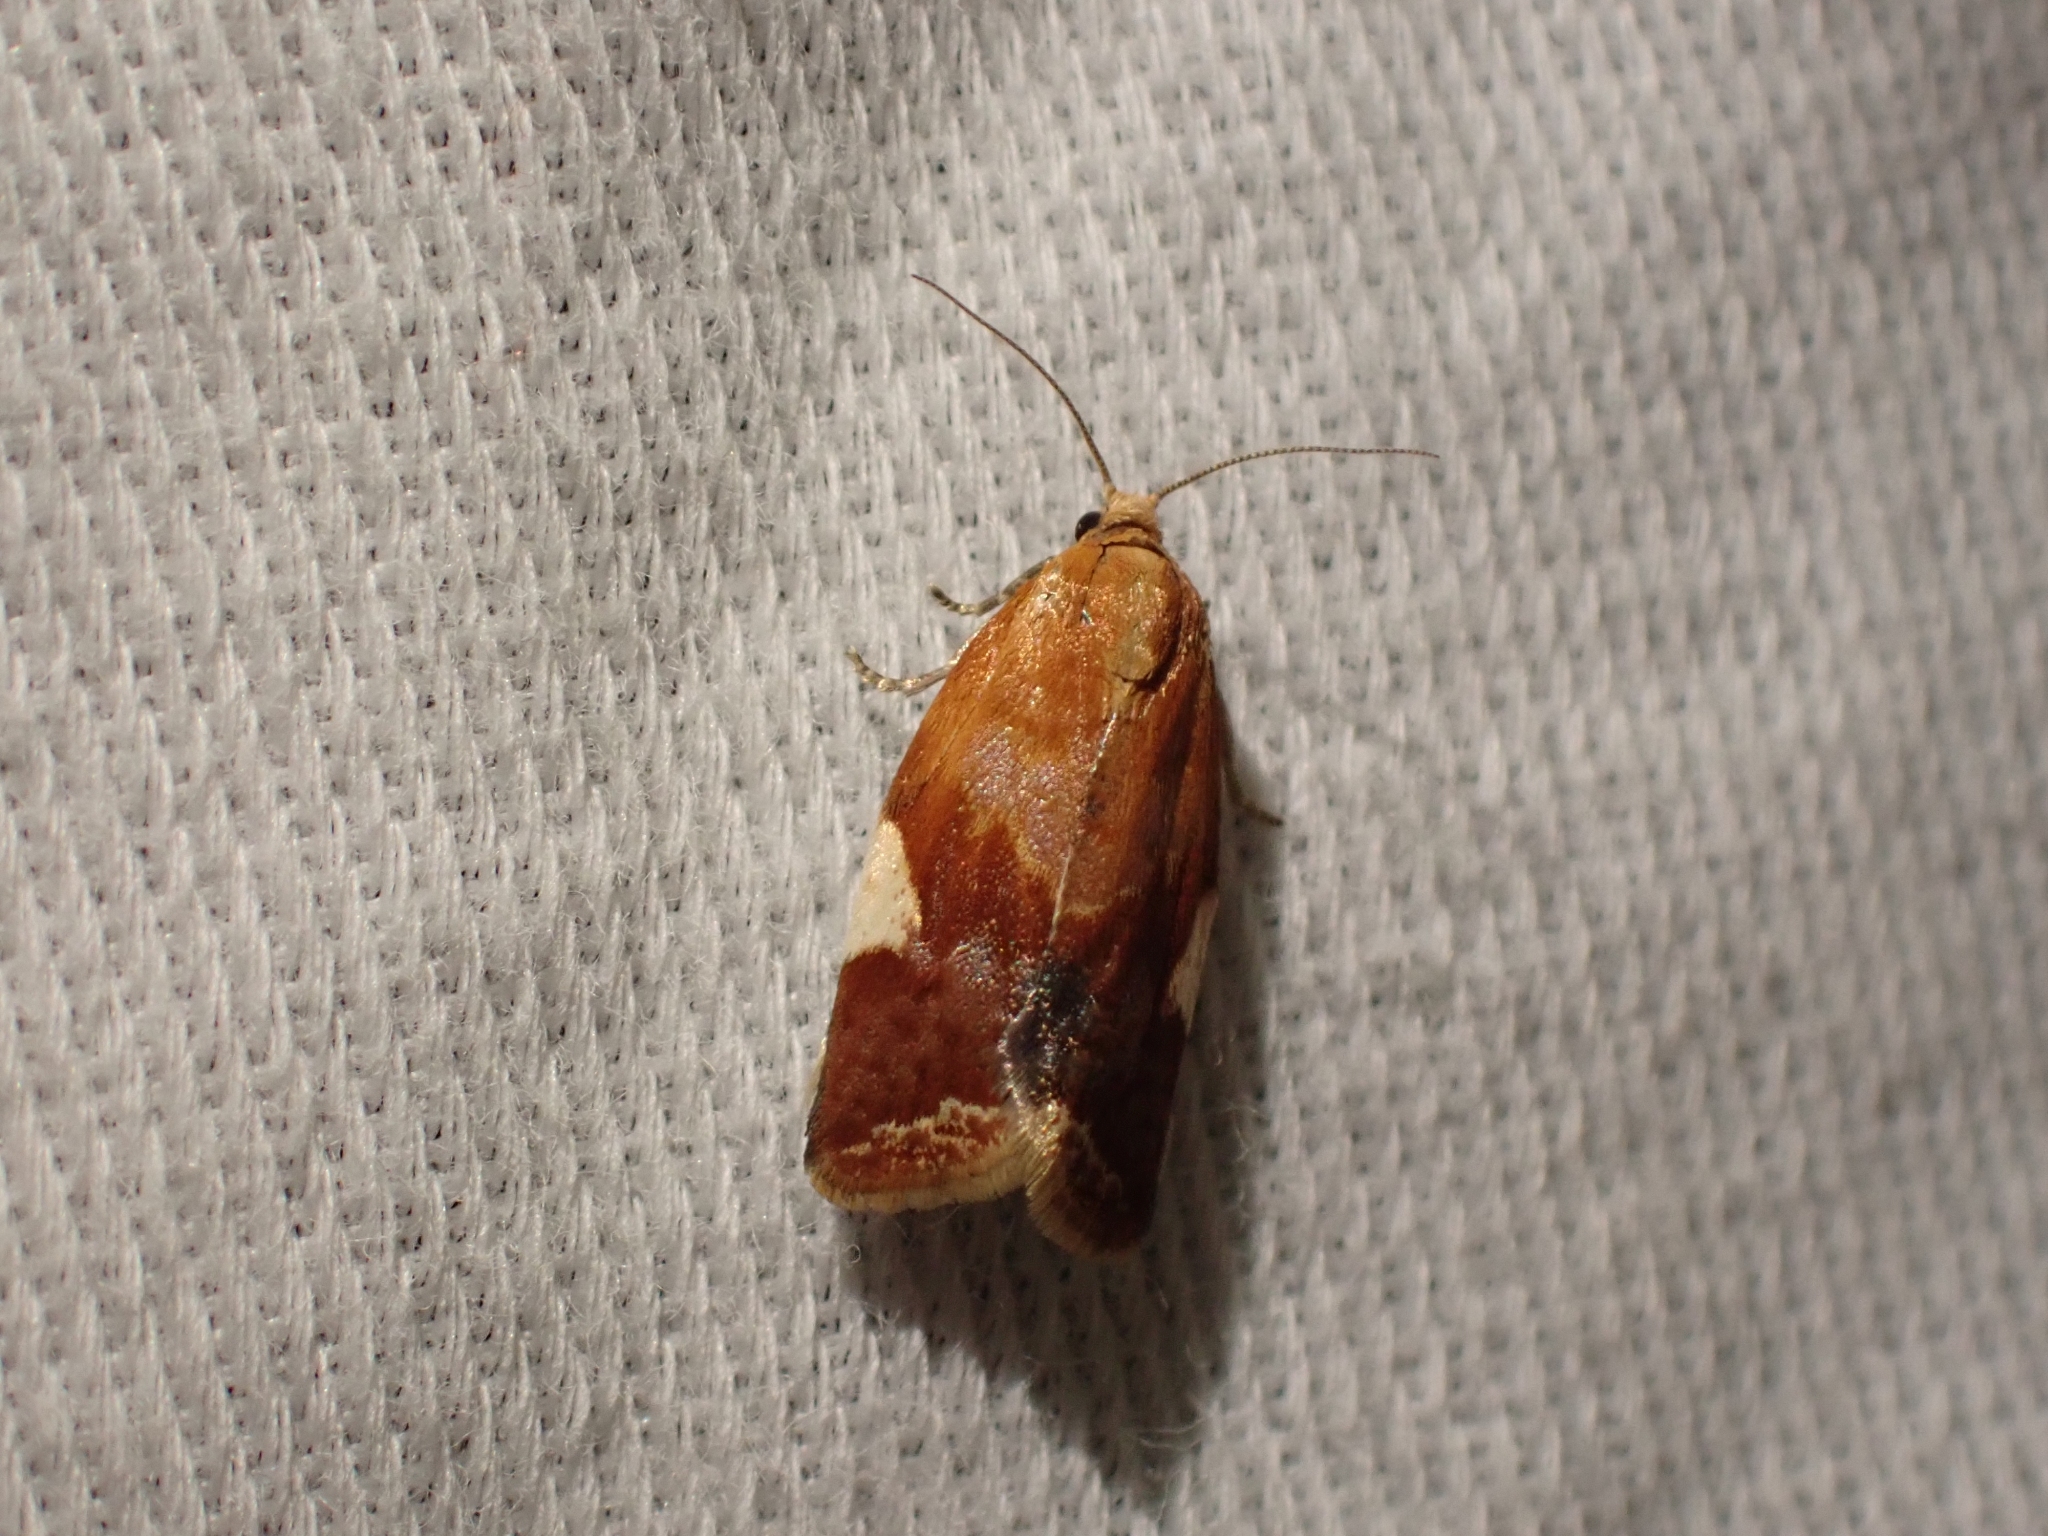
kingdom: Animalia
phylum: Arthropoda
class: Insecta
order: Lepidoptera
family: Tortricidae
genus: Clepsis
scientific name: Clepsis persicana
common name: White triangle tortrix
